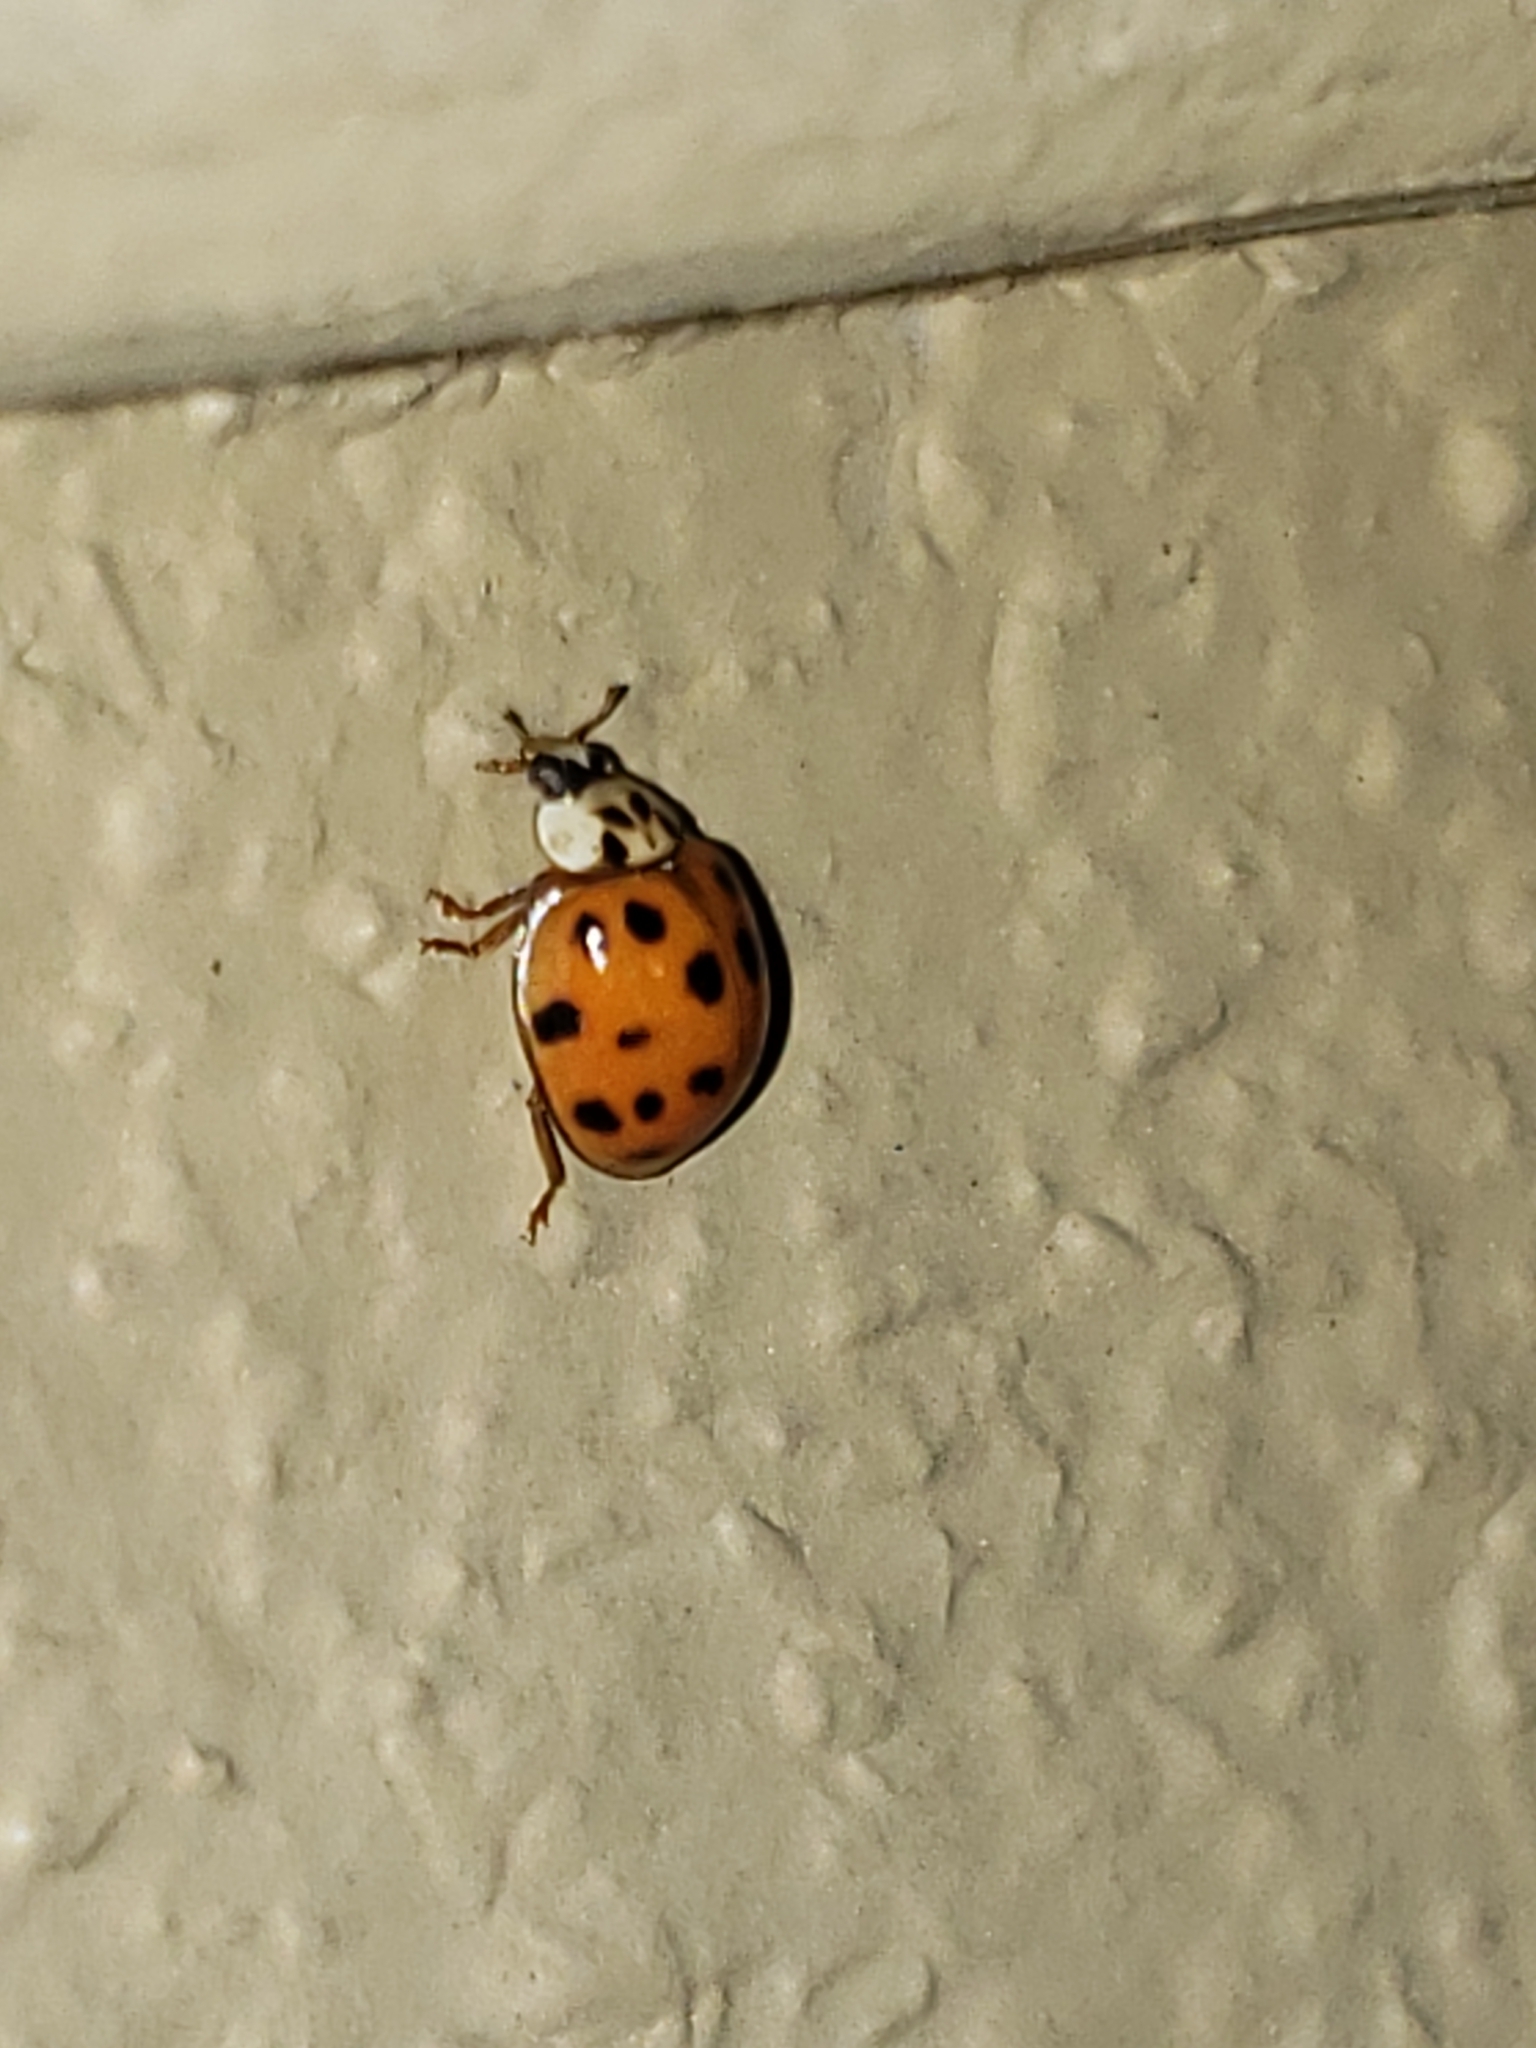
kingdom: Animalia
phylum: Arthropoda
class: Insecta
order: Coleoptera
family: Coccinellidae
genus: Harmonia
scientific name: Harmonia axyridis
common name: Harlequin ladybird
